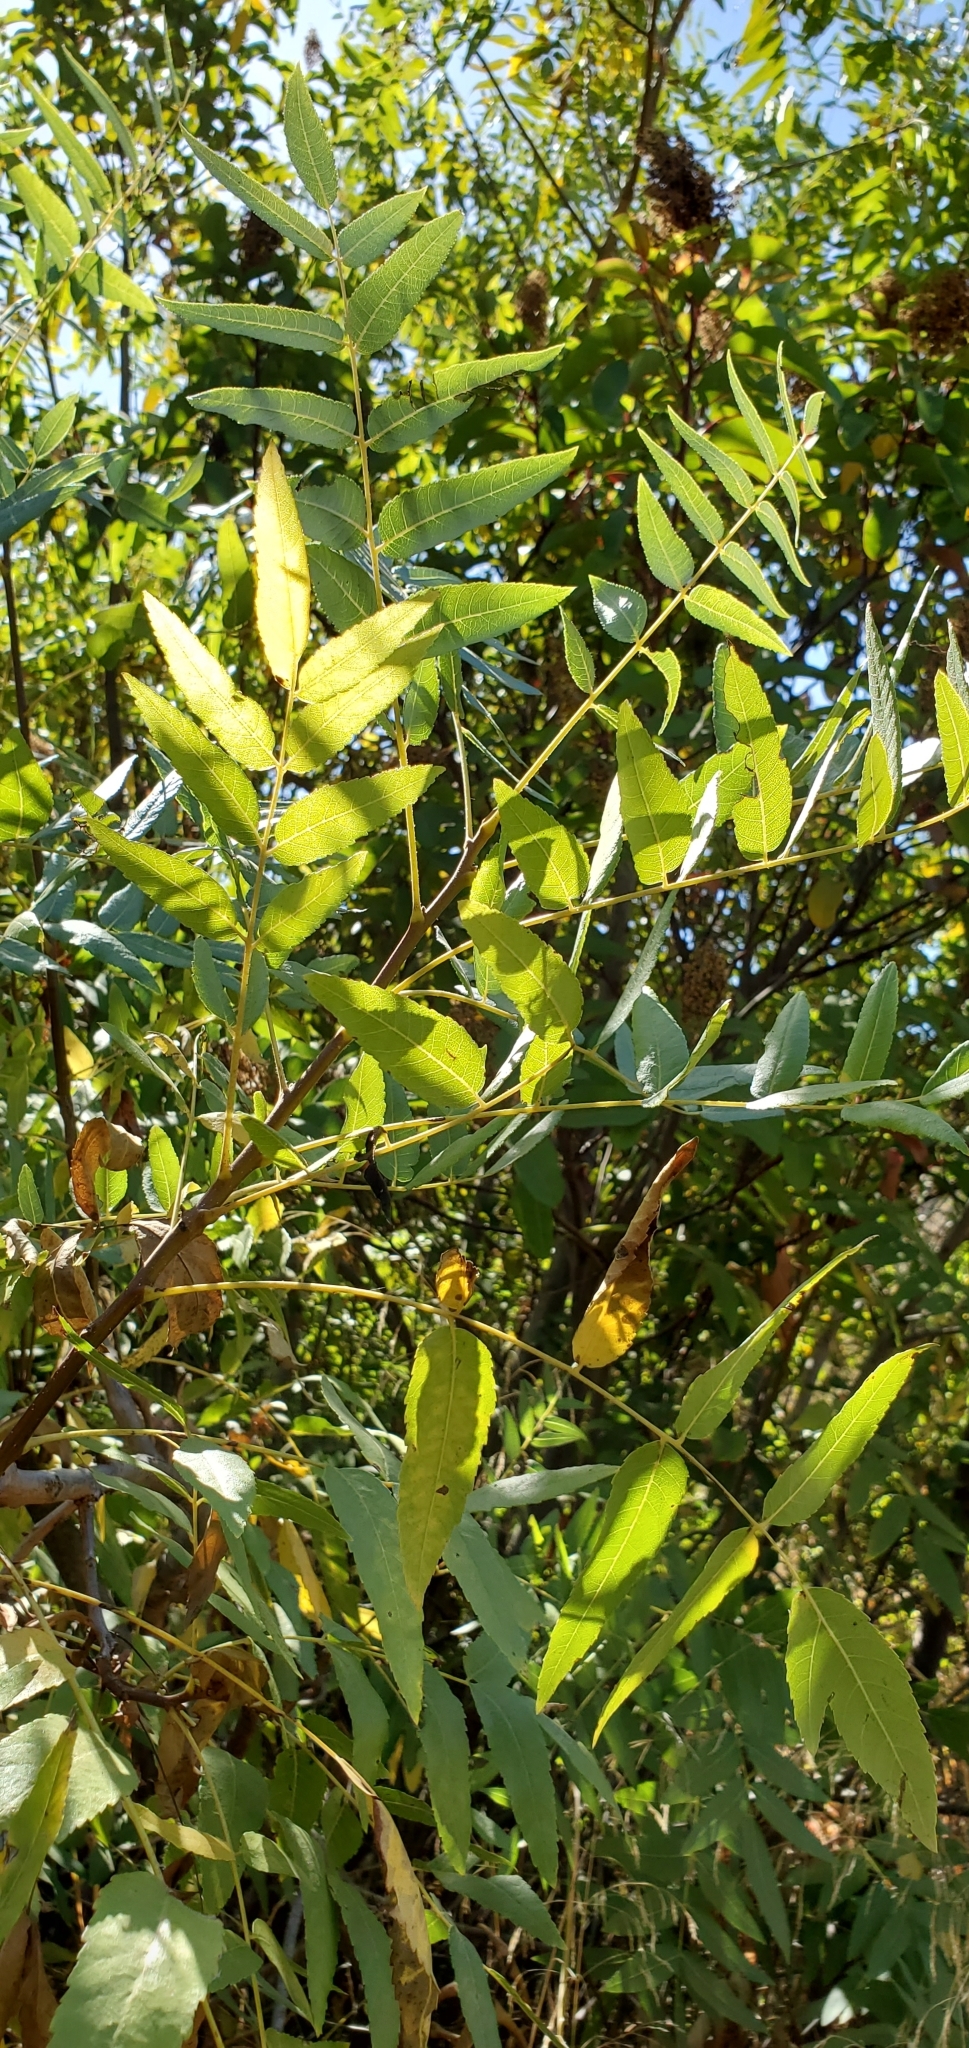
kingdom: Plantae
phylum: Tracheophyta
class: Magnoliopsida
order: Fagales
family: Juglandaceae
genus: Juglans
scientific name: Juglans californica
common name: Southern california black walnut
